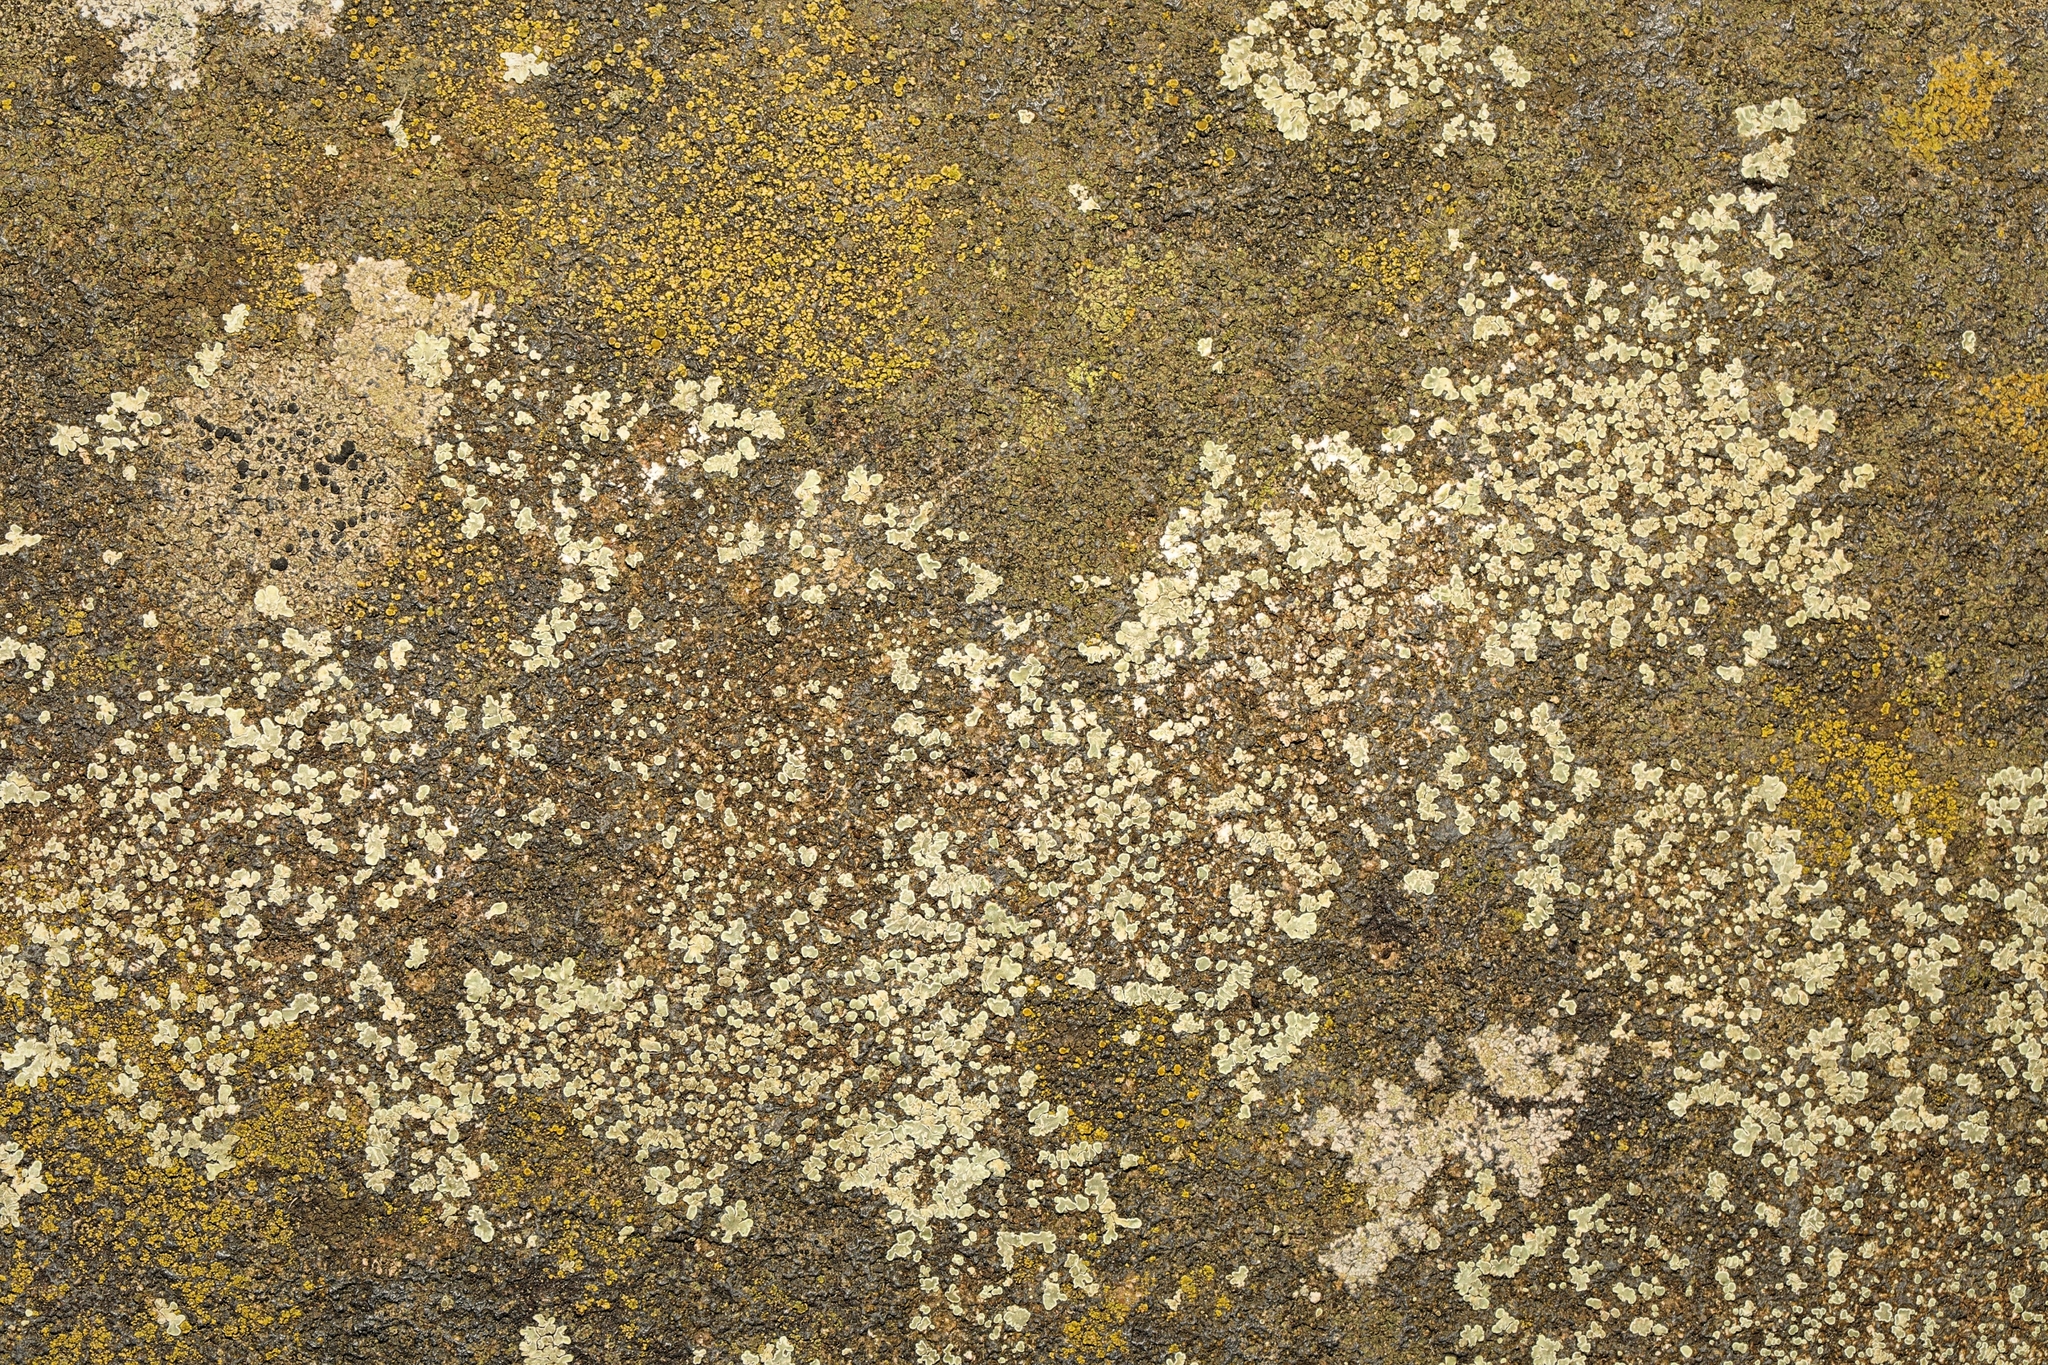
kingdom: Fungi
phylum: Ascomycota
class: Lecanoromycetes
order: Lecanorales
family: Lecanoraceae
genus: Protoparmeliopsis
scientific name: Protoparmeliopsis muralis
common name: Stonewall rim lichen
